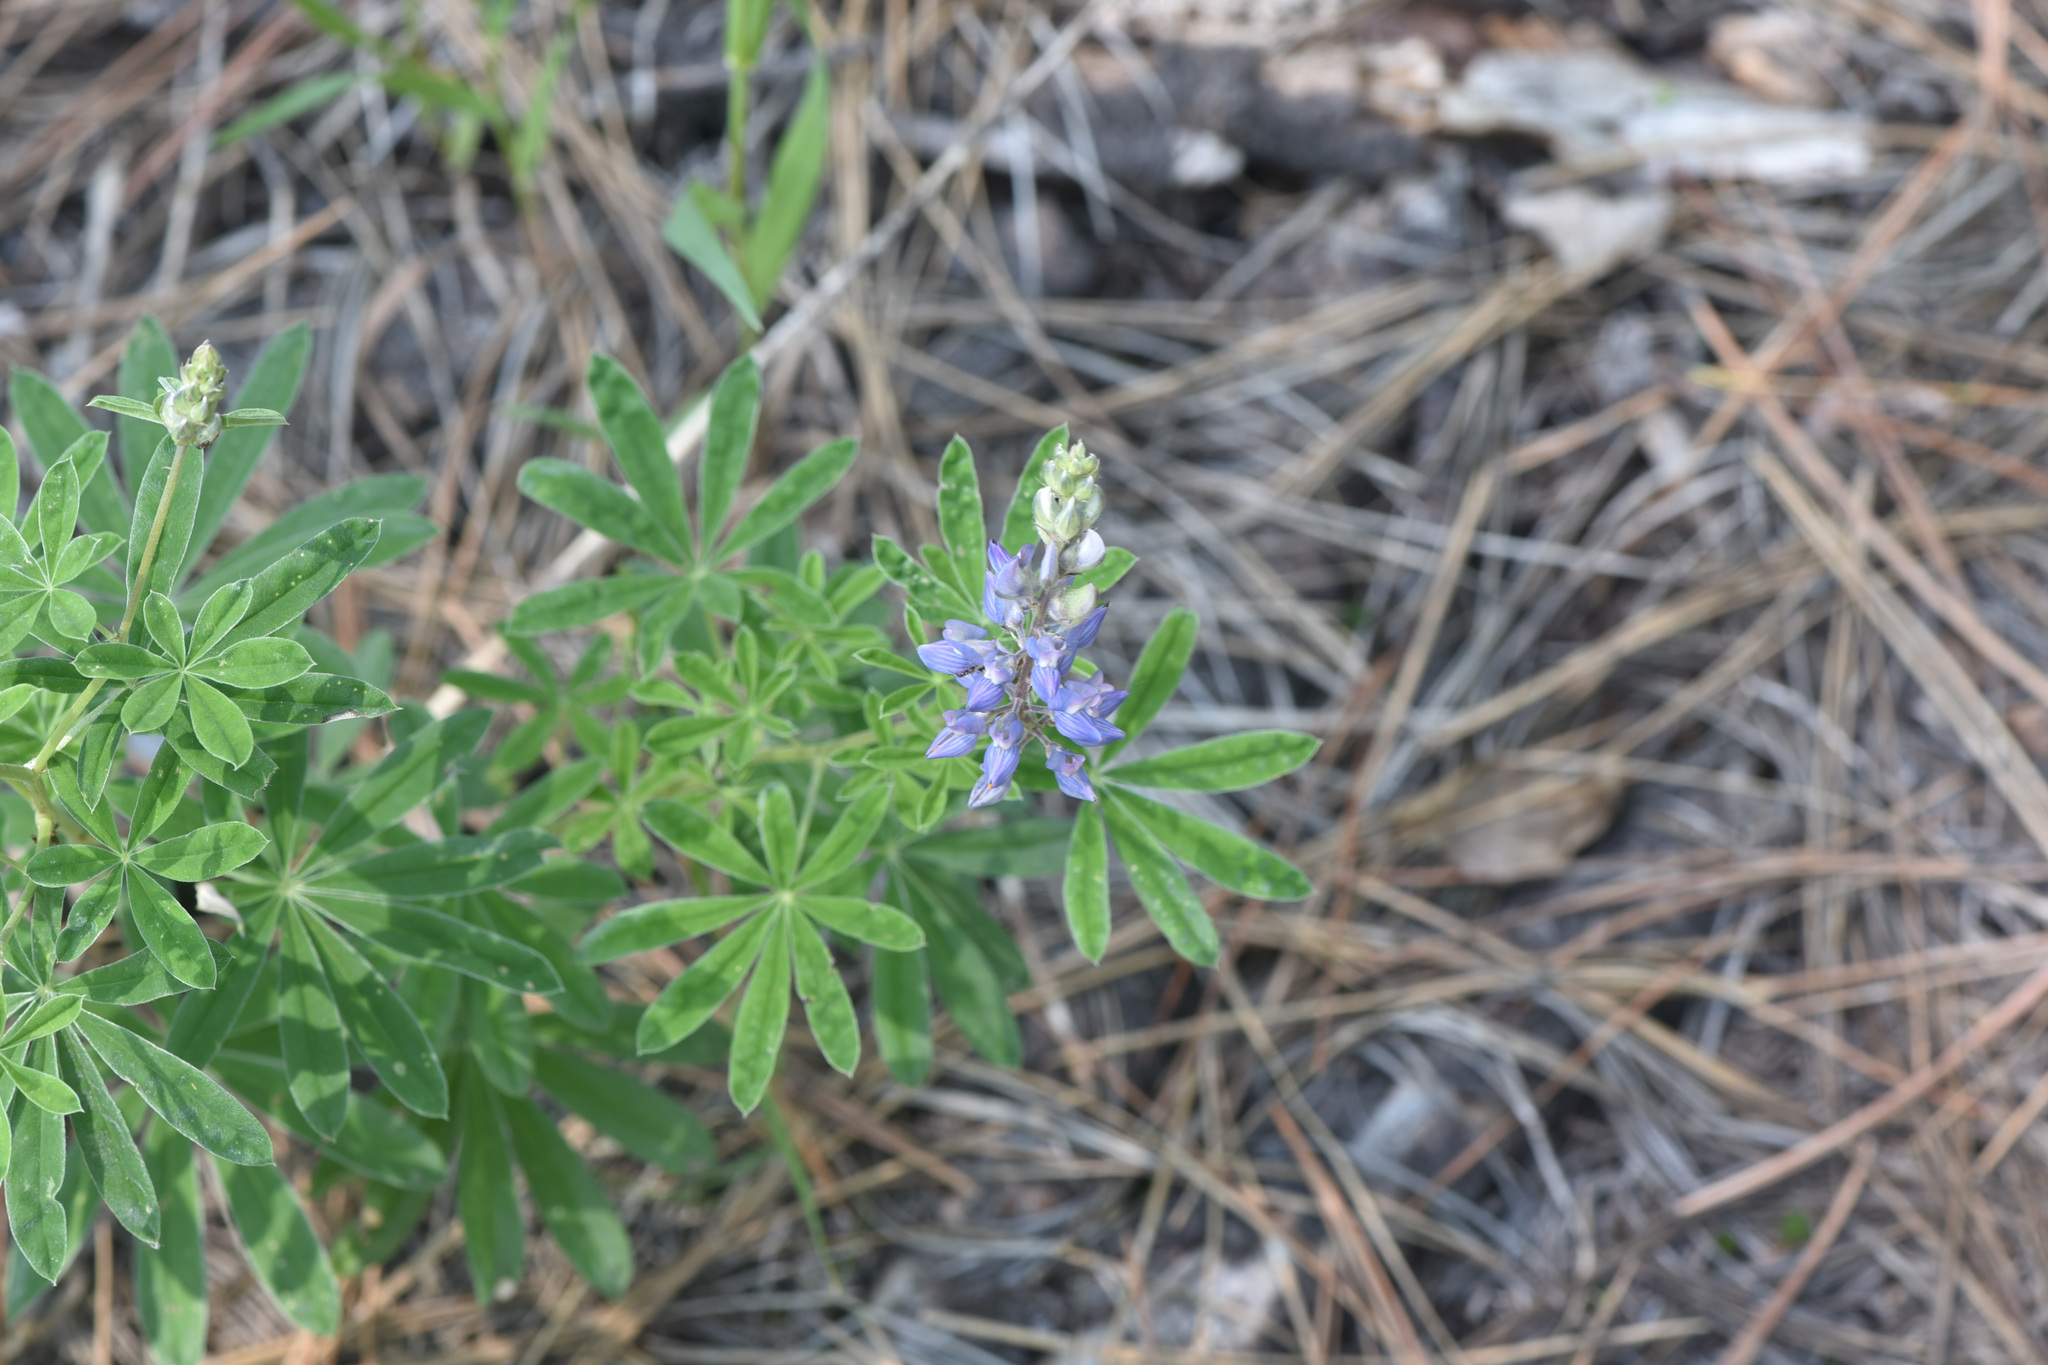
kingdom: Plantae
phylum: Tracheophyta
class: Magnoliopsida
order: Fabales
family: Fabaceae
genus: Lupinus
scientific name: Lupinus sericeus
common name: Silky lupine
